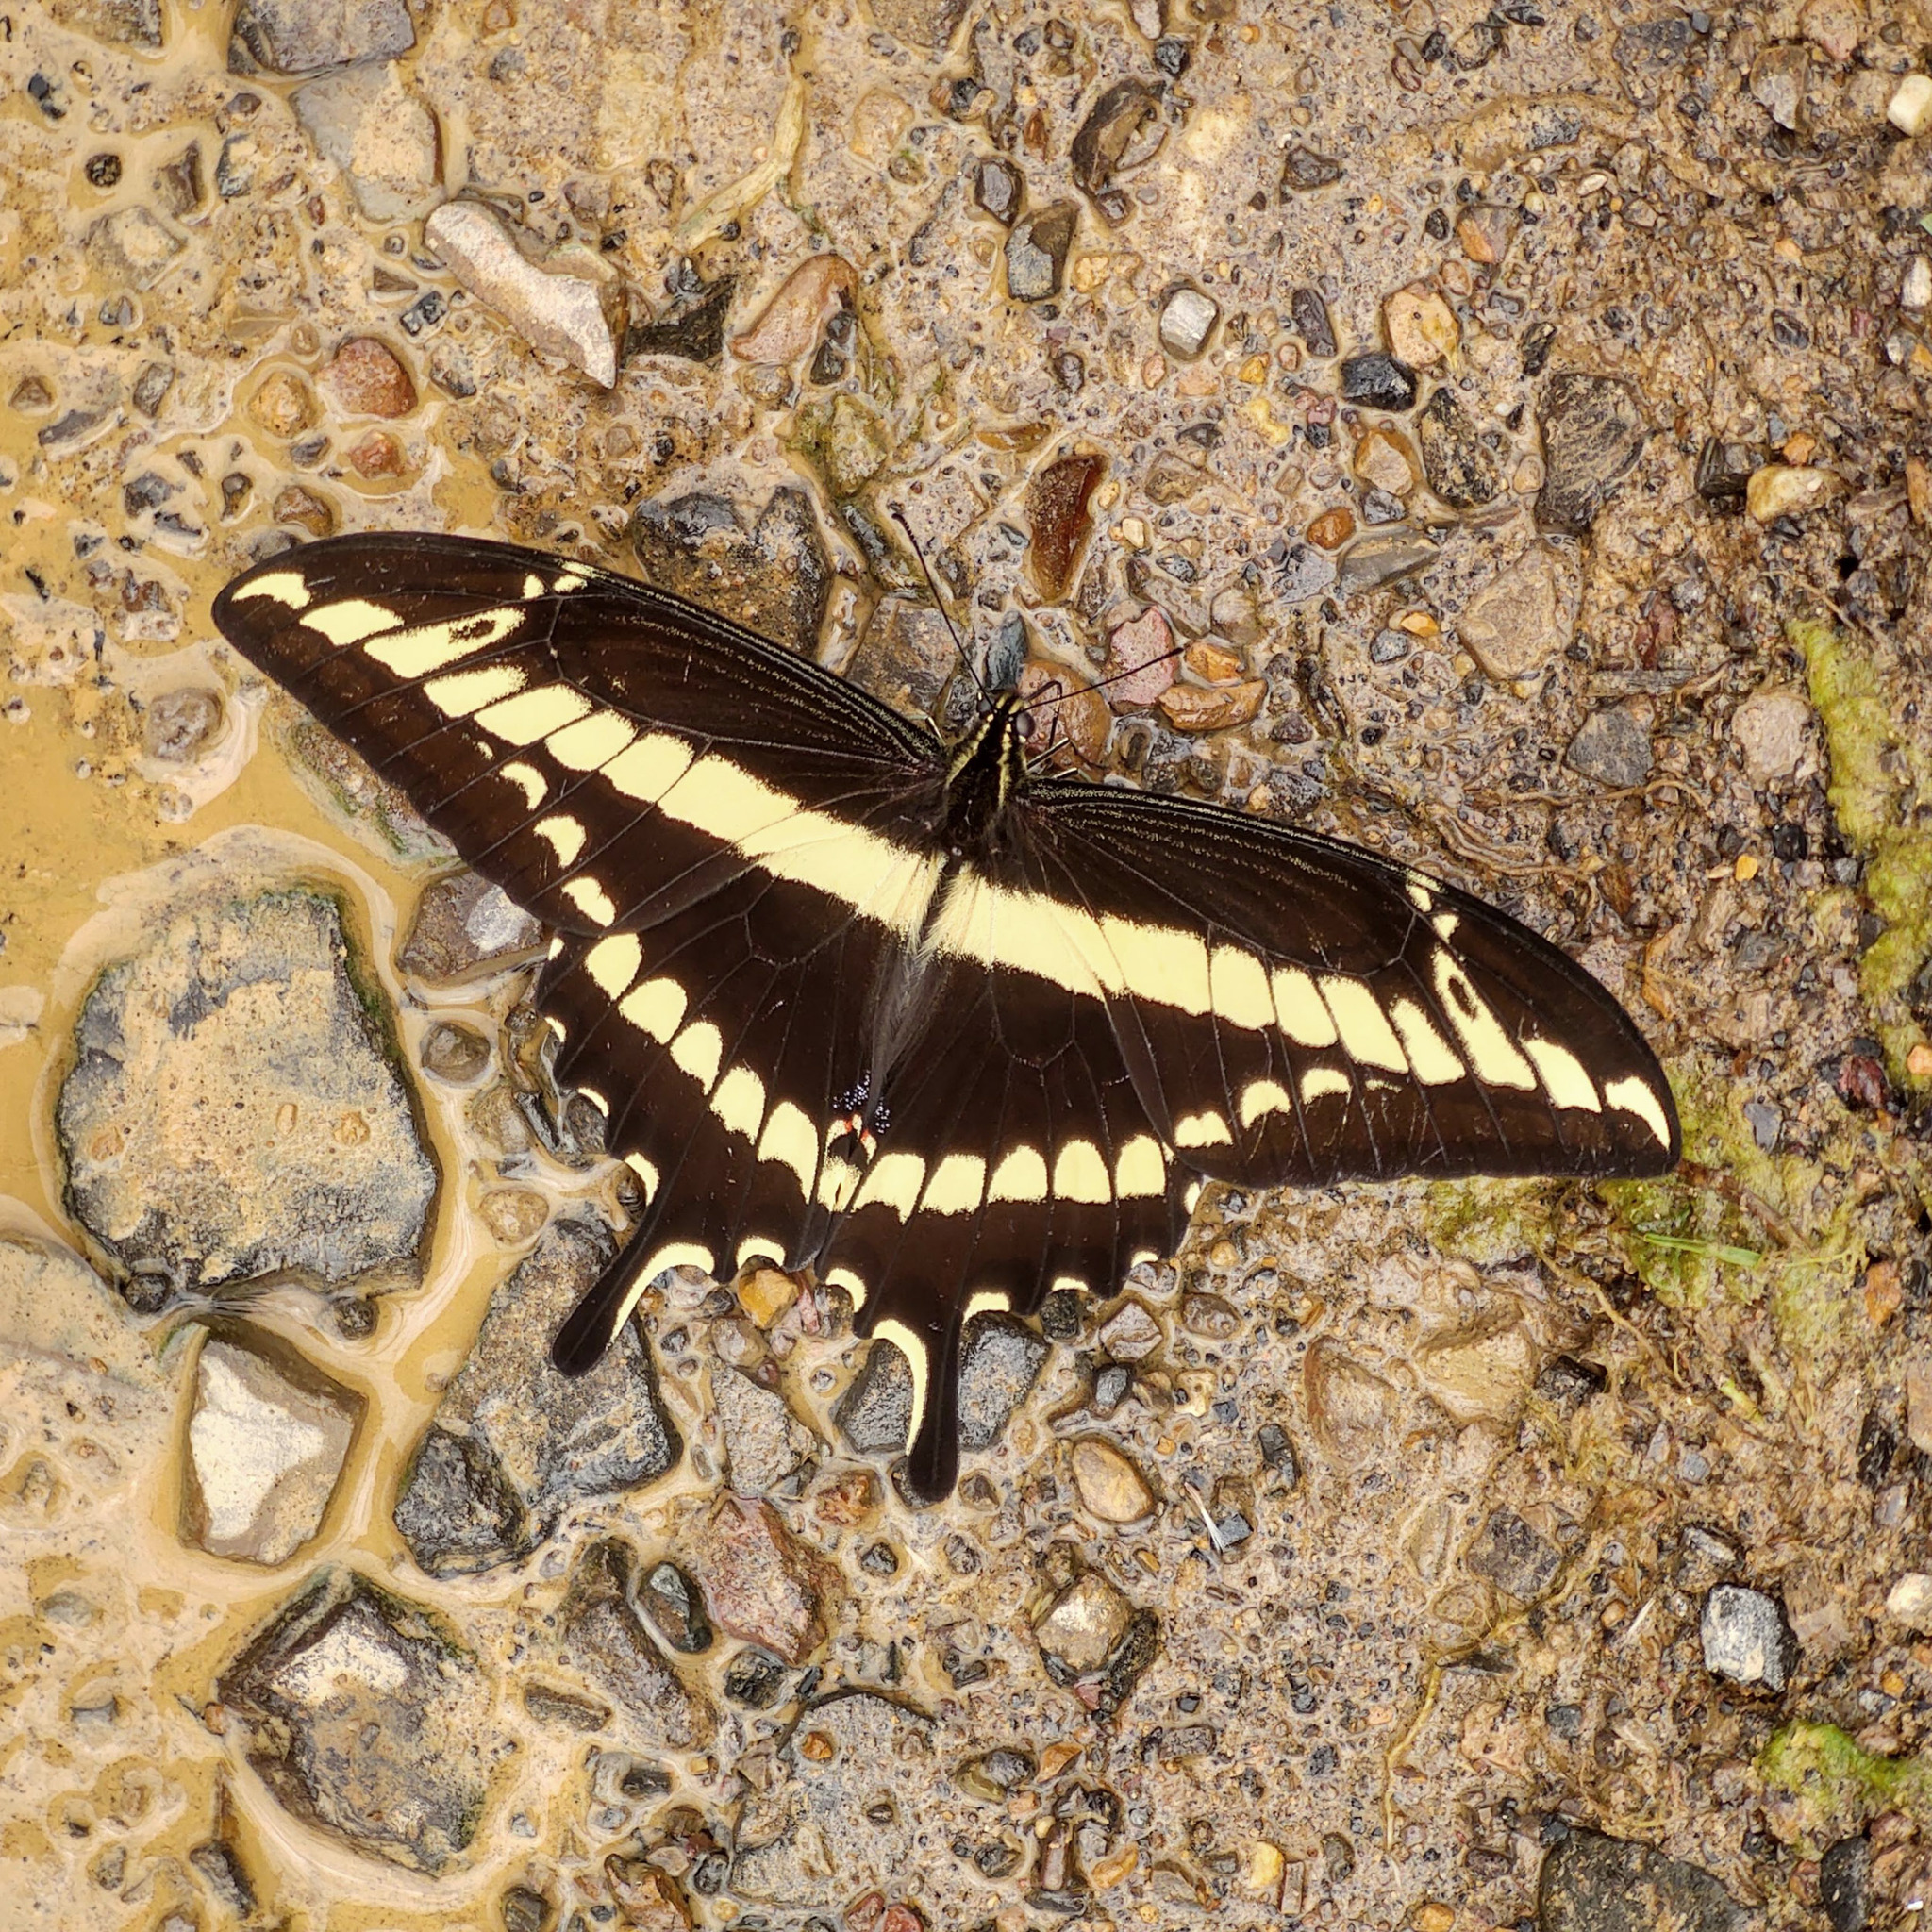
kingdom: Animalia
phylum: Arthropoda
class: Insecta
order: Lepidoptera
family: Papilionidae
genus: Heraclides
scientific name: Heraclides pallas
